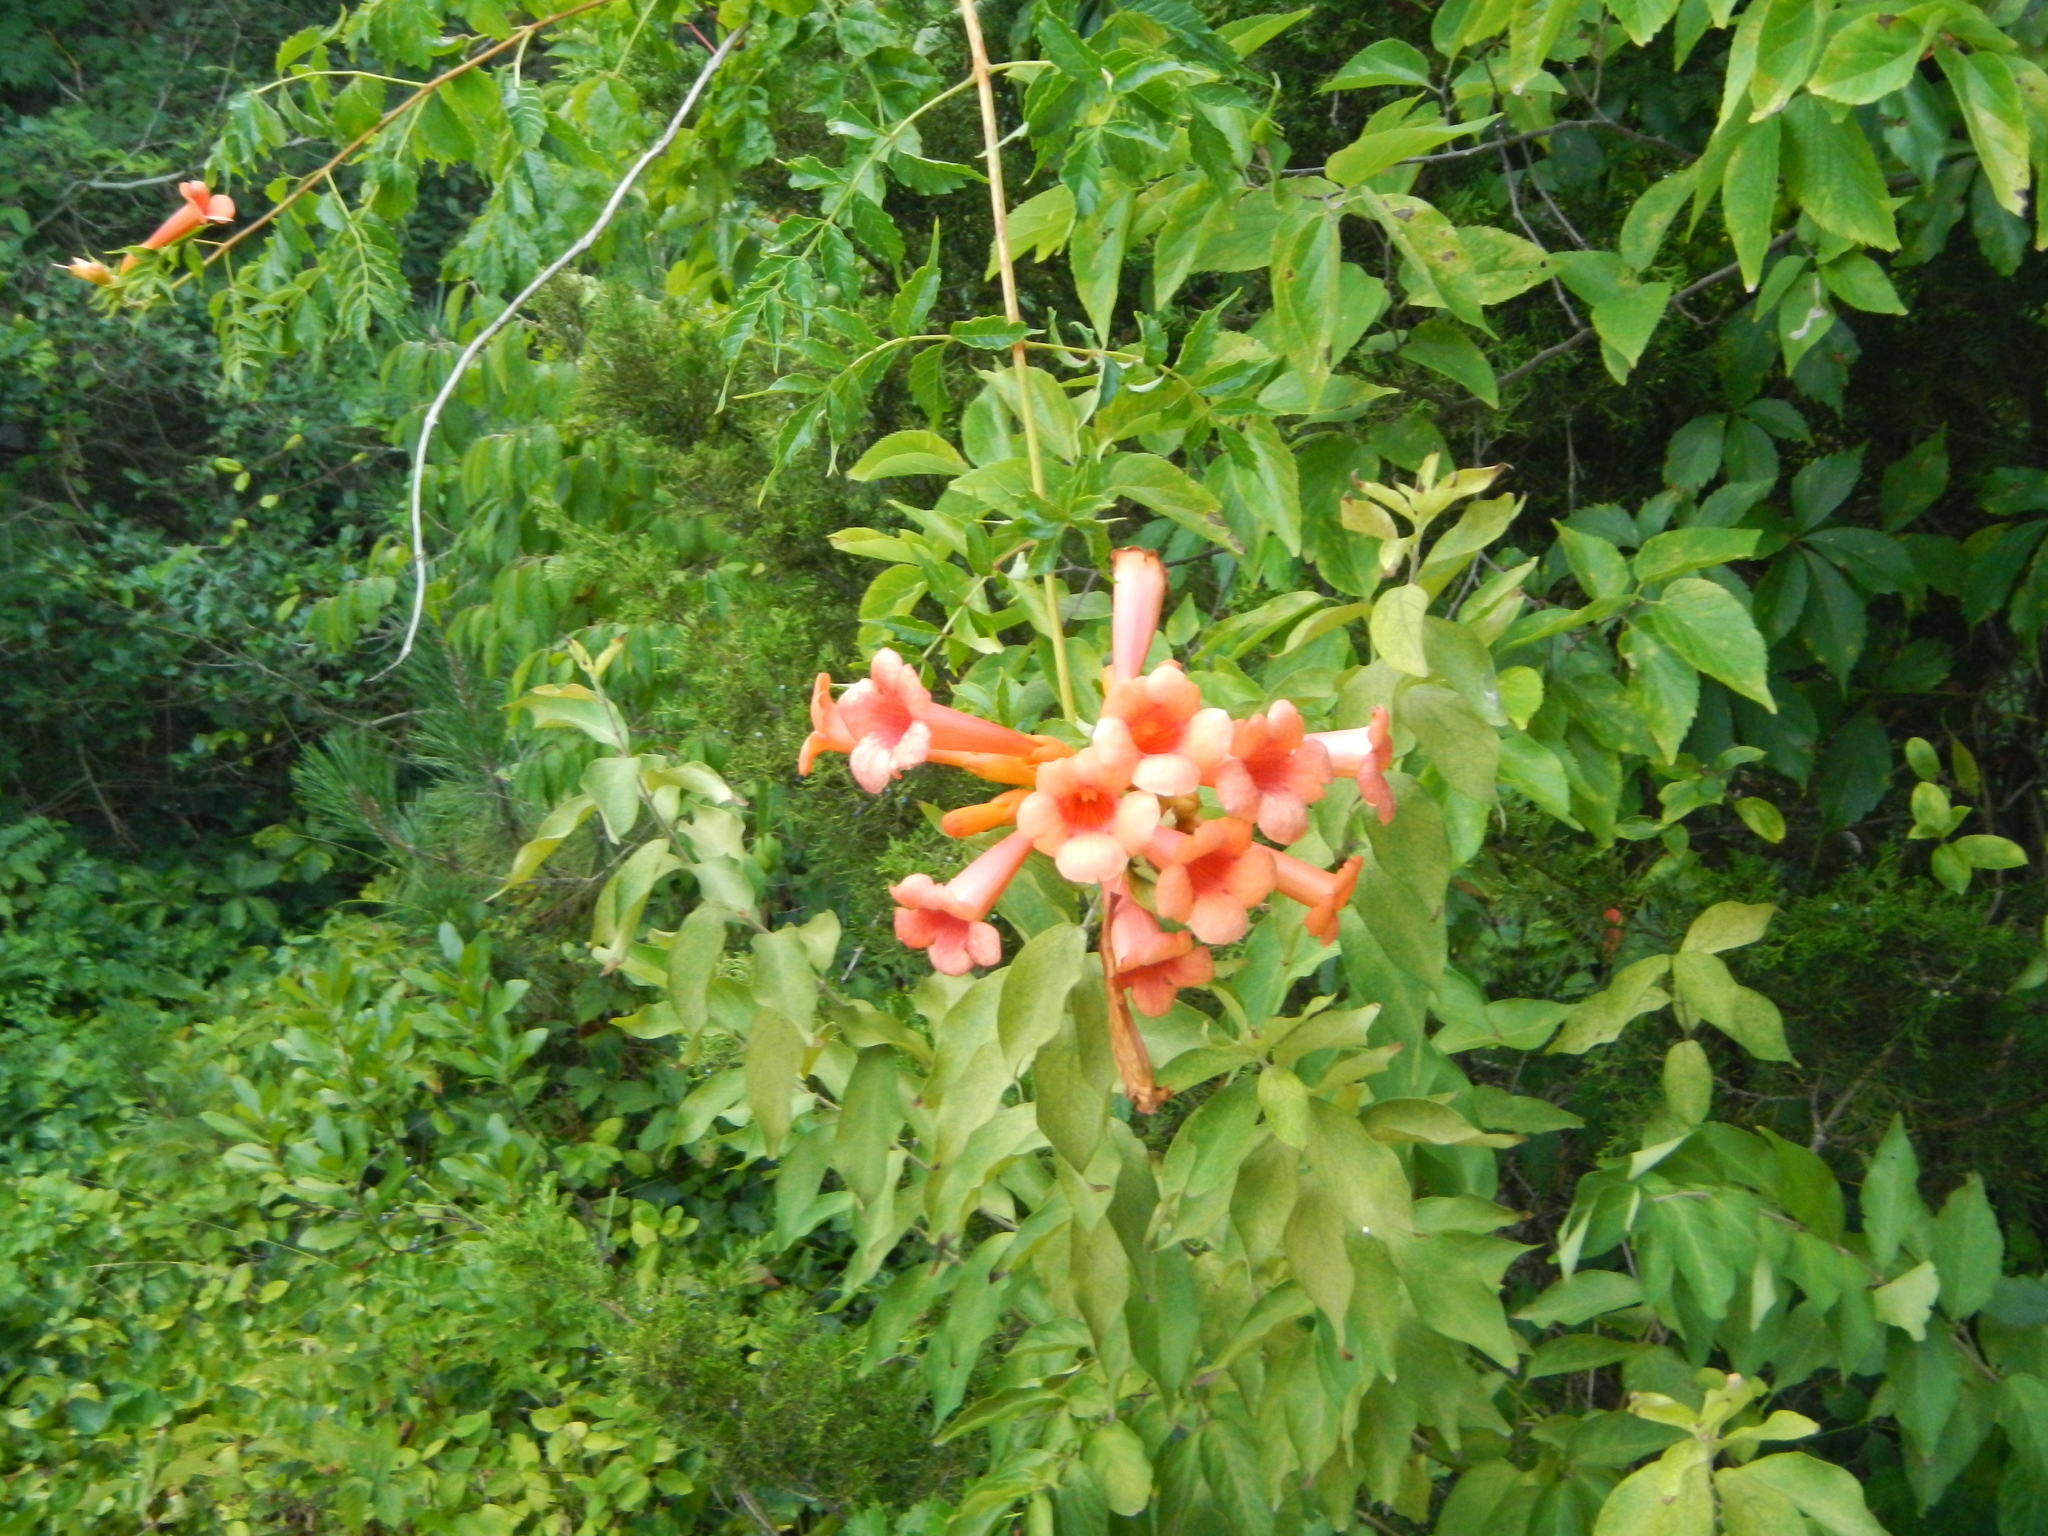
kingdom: Plantae
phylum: Tracheophyta
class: Magnoliopsida
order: Lamiales
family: Bignoniaceae
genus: Campsis
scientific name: Campsis radicans
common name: Trumpet-creeper
